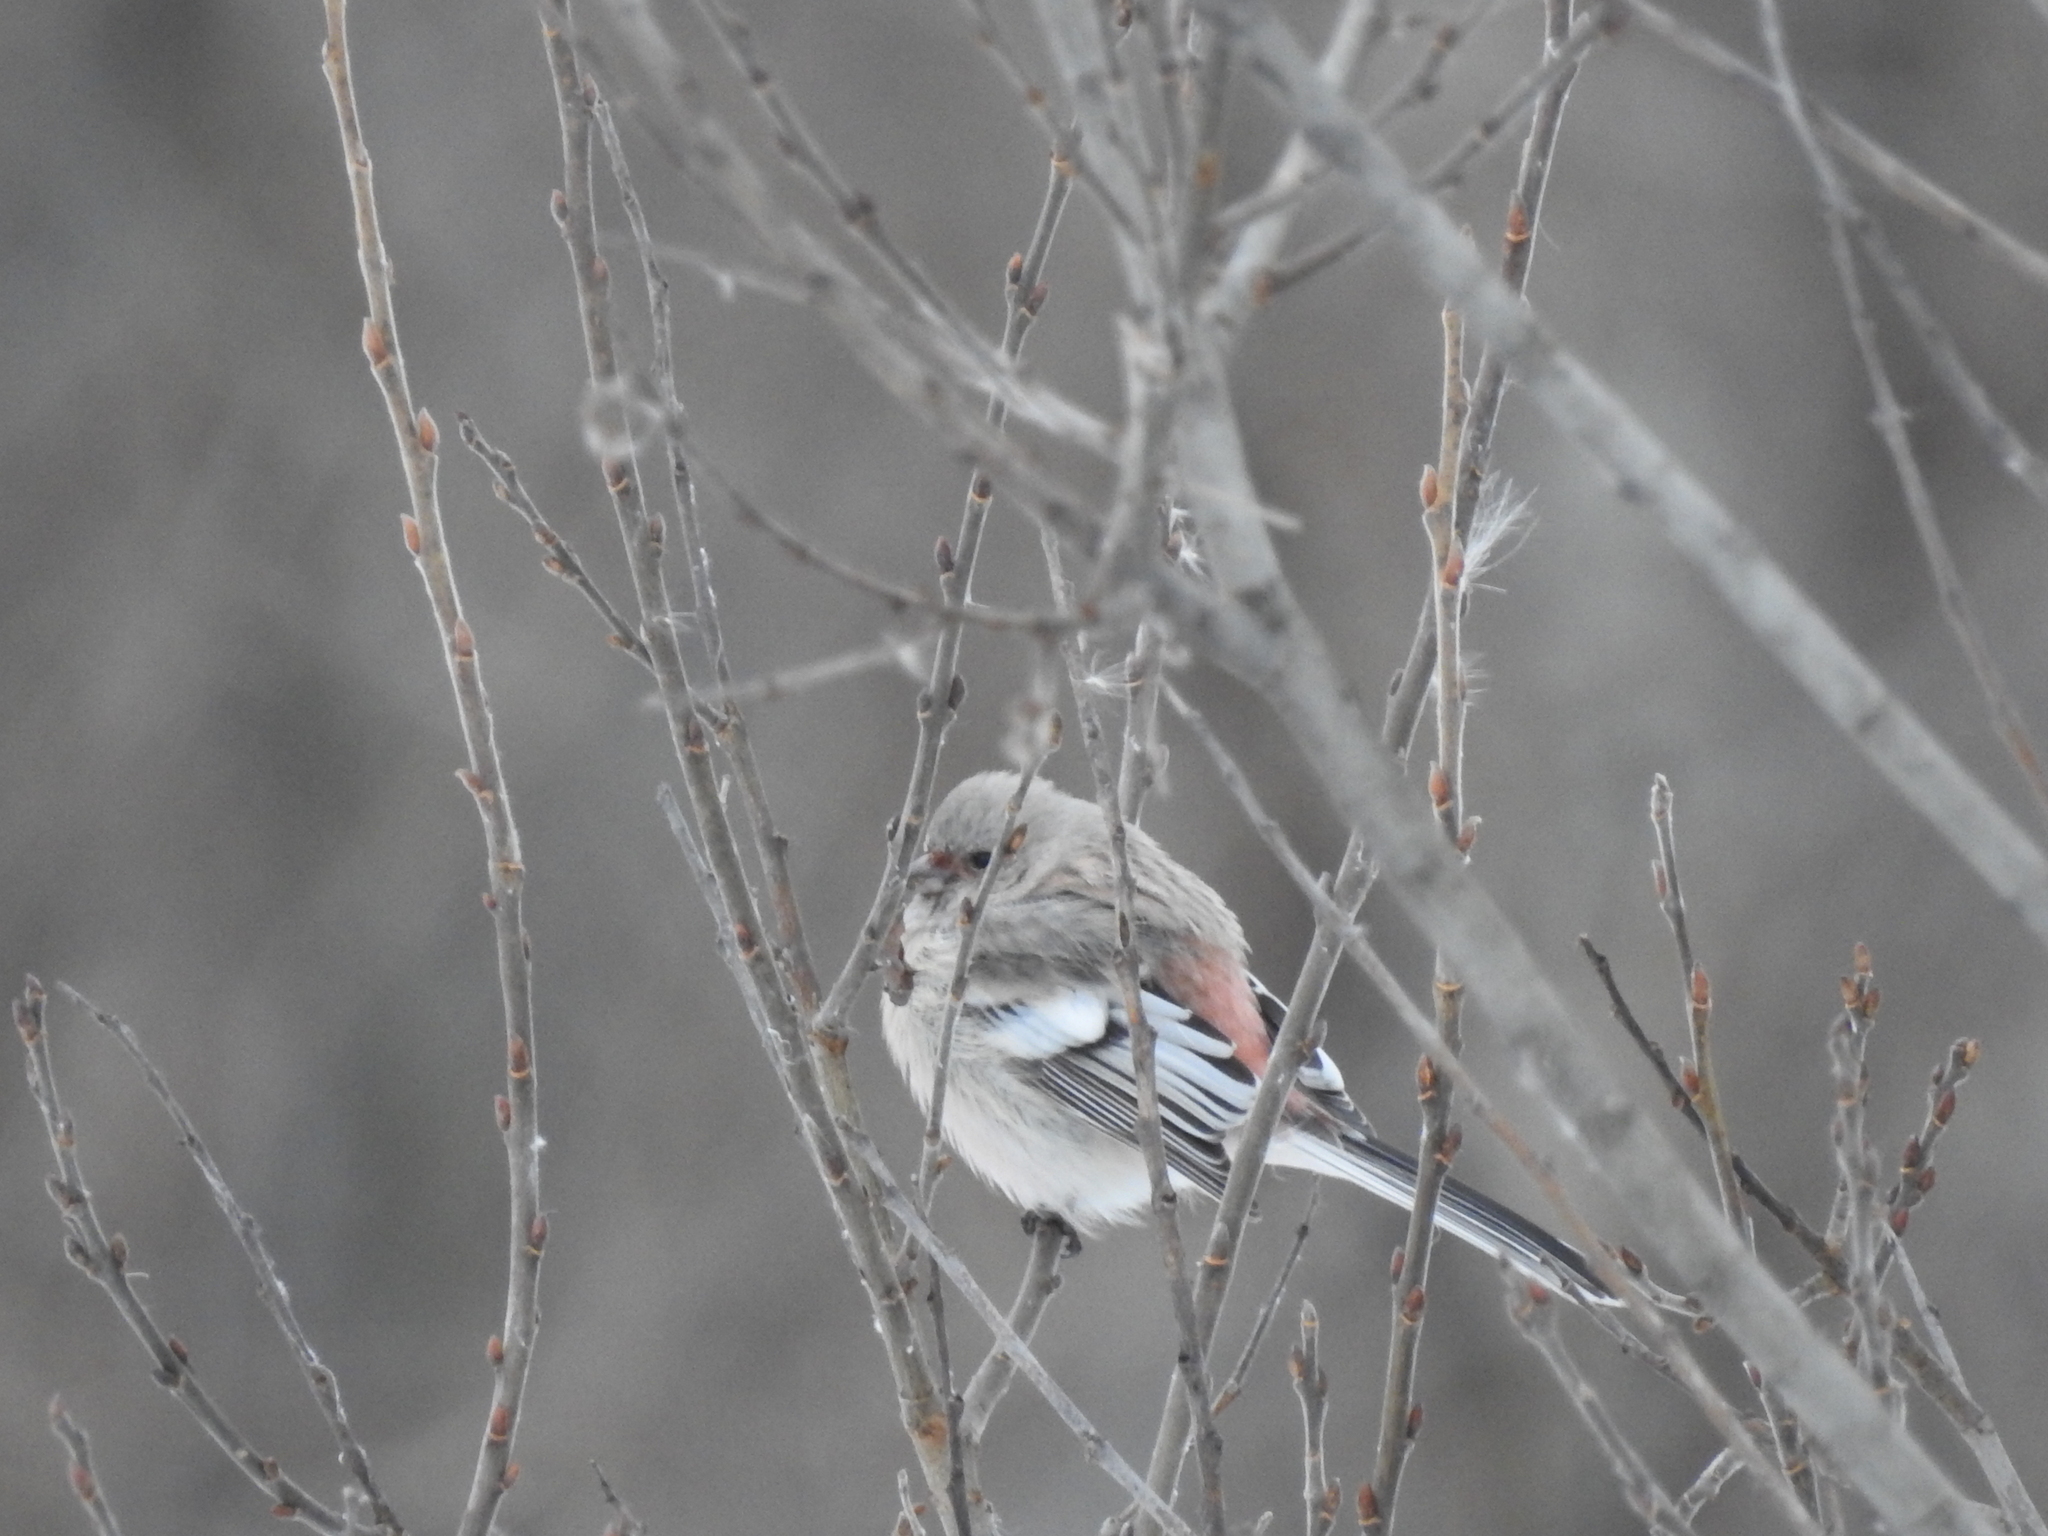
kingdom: Animalia
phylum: Chordata
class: Aves
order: Passeriformes
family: Fringillidae
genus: Carpodacus
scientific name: Carpodacus sibiricus
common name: Long-tailed rosefinch
